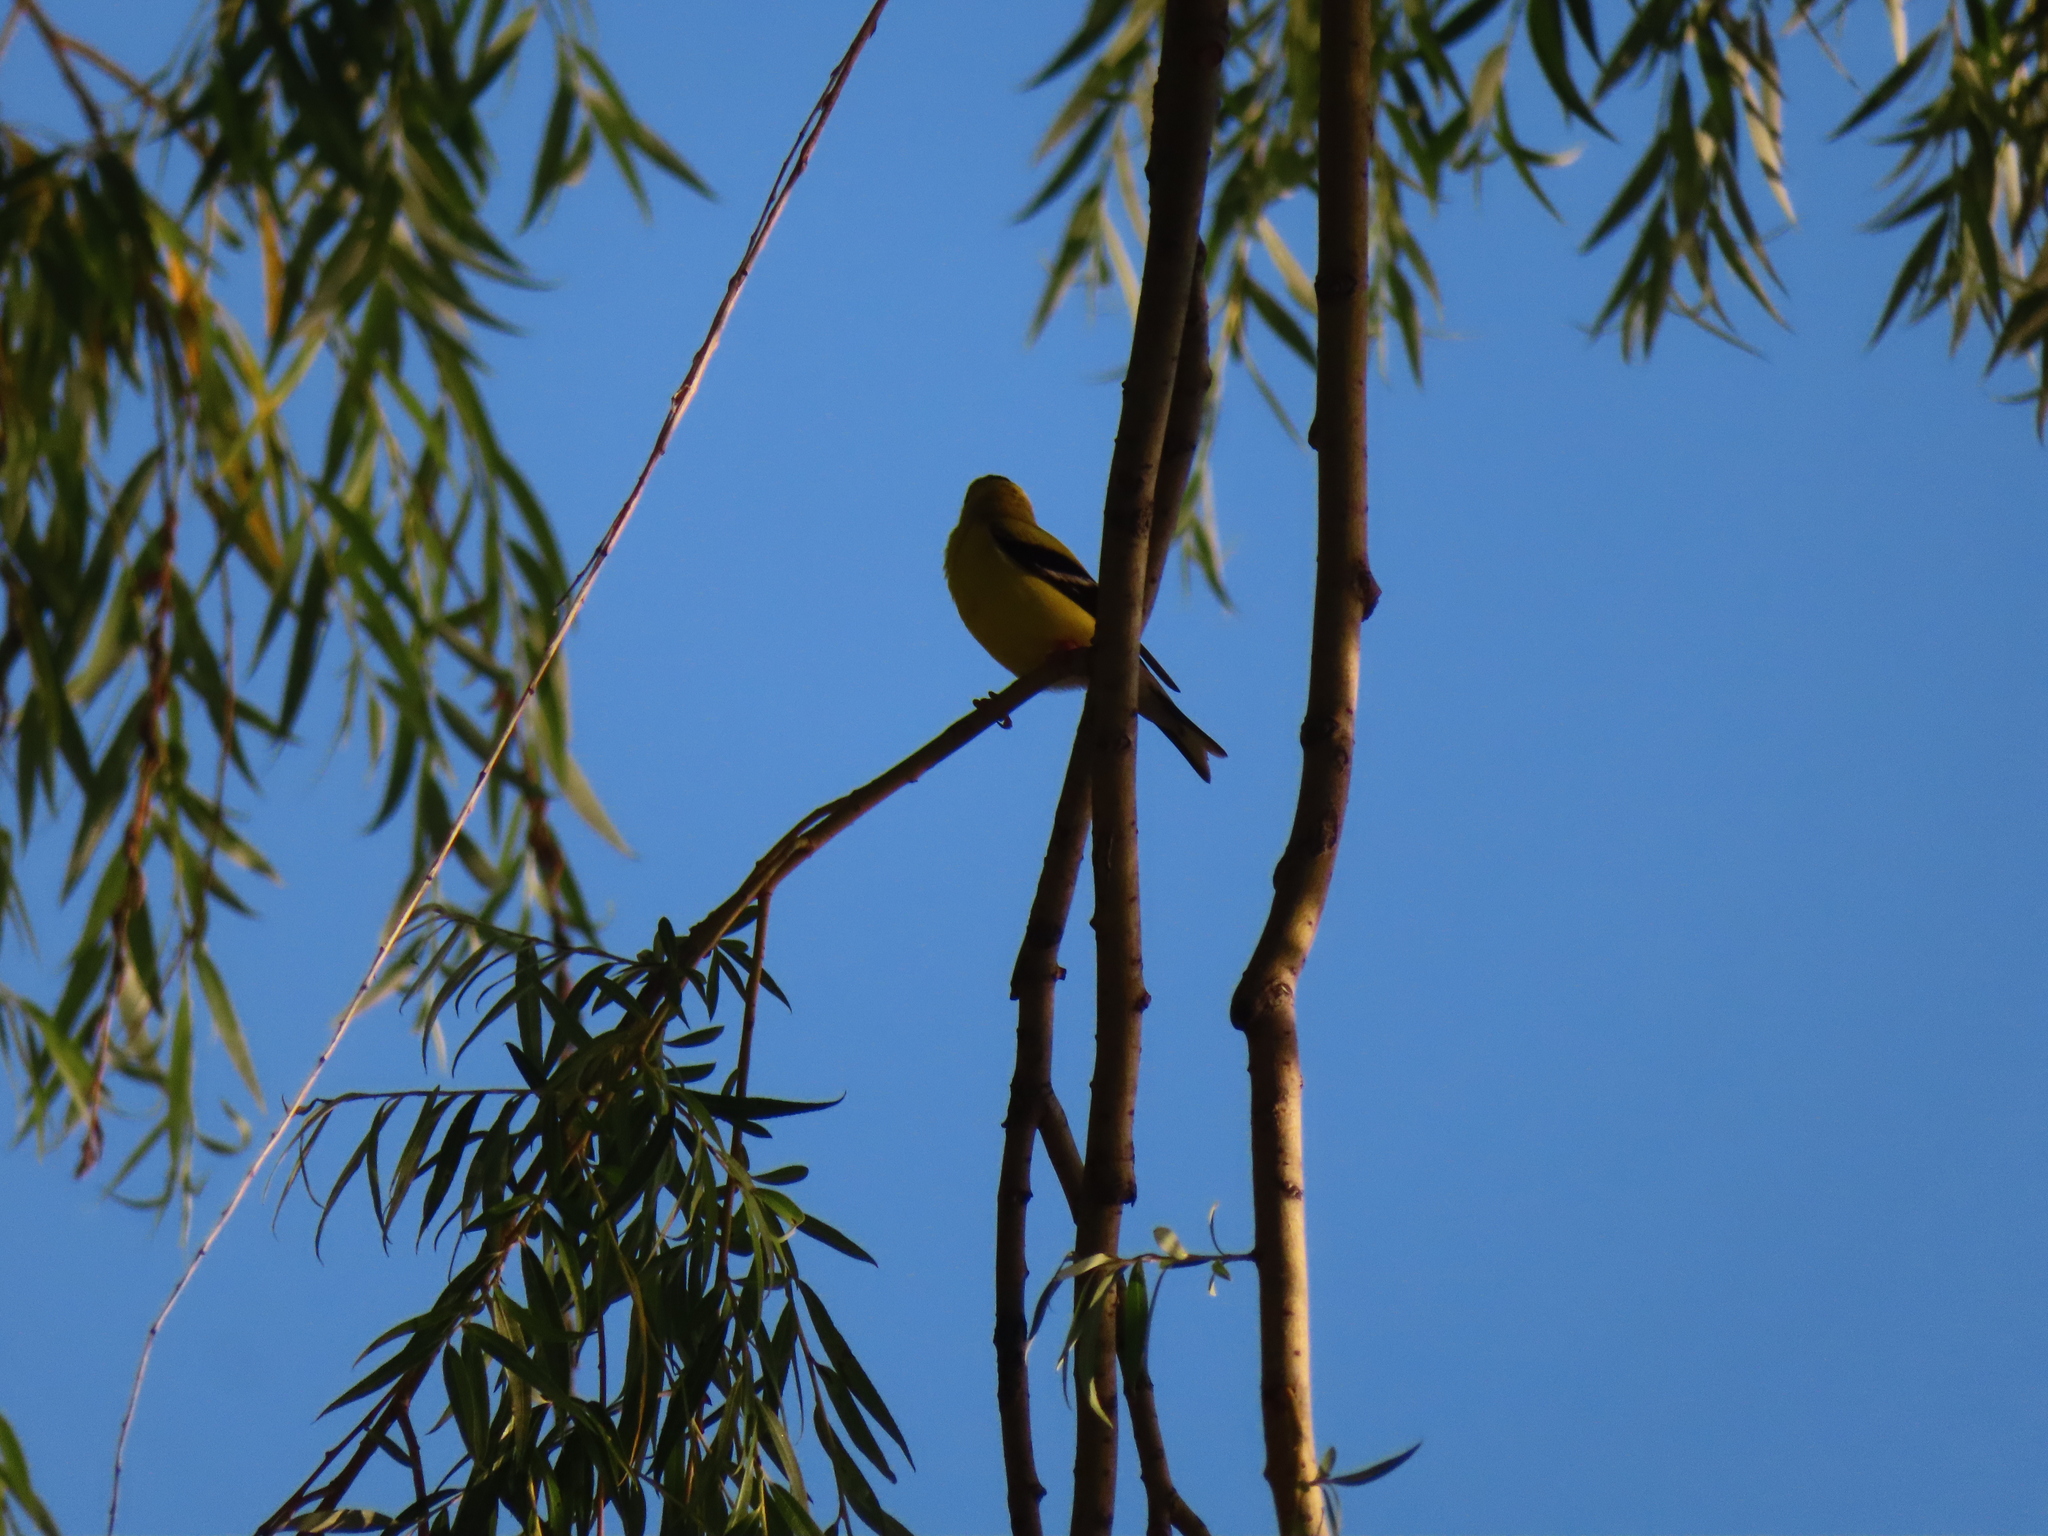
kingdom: Animalia
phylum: Chordata
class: Aves
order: Passeriformes
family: Fringillidae
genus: Spinus
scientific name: Spinus tristis
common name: American goldfinch
